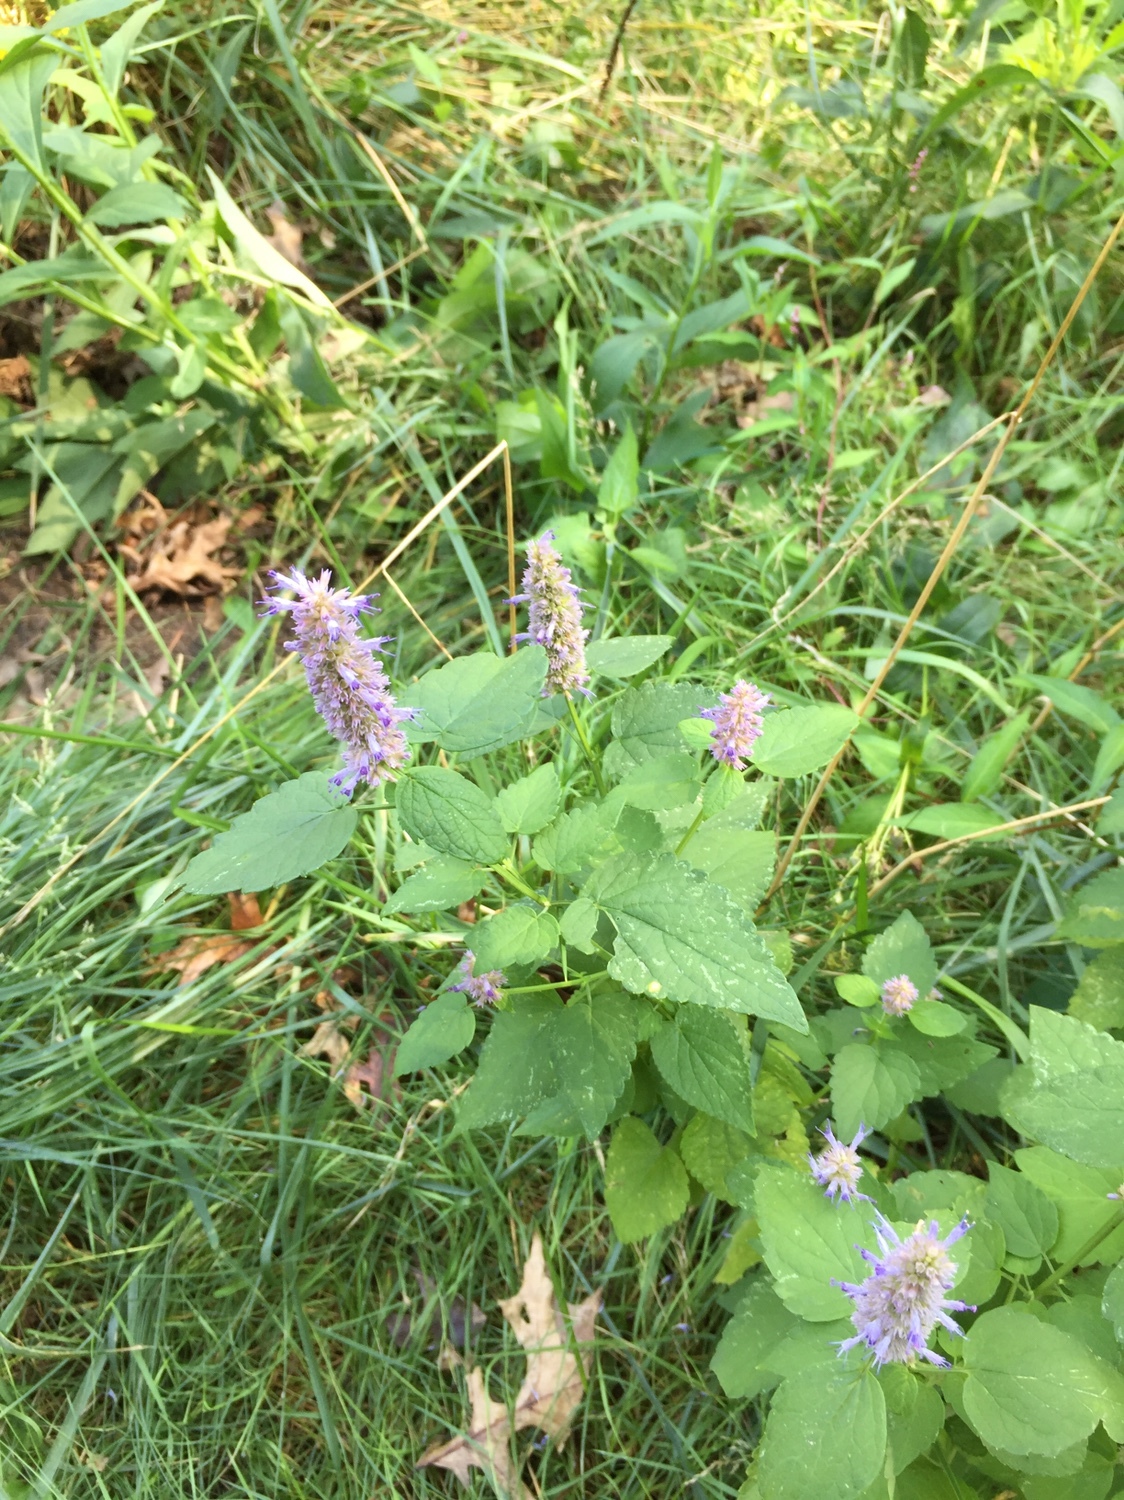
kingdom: Plantae
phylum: Tracheophyta
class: Magnoliopsida
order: Lamiales
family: Lamiaceae
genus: Agastache
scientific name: Agastache foeniculum
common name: Anise hyssop
